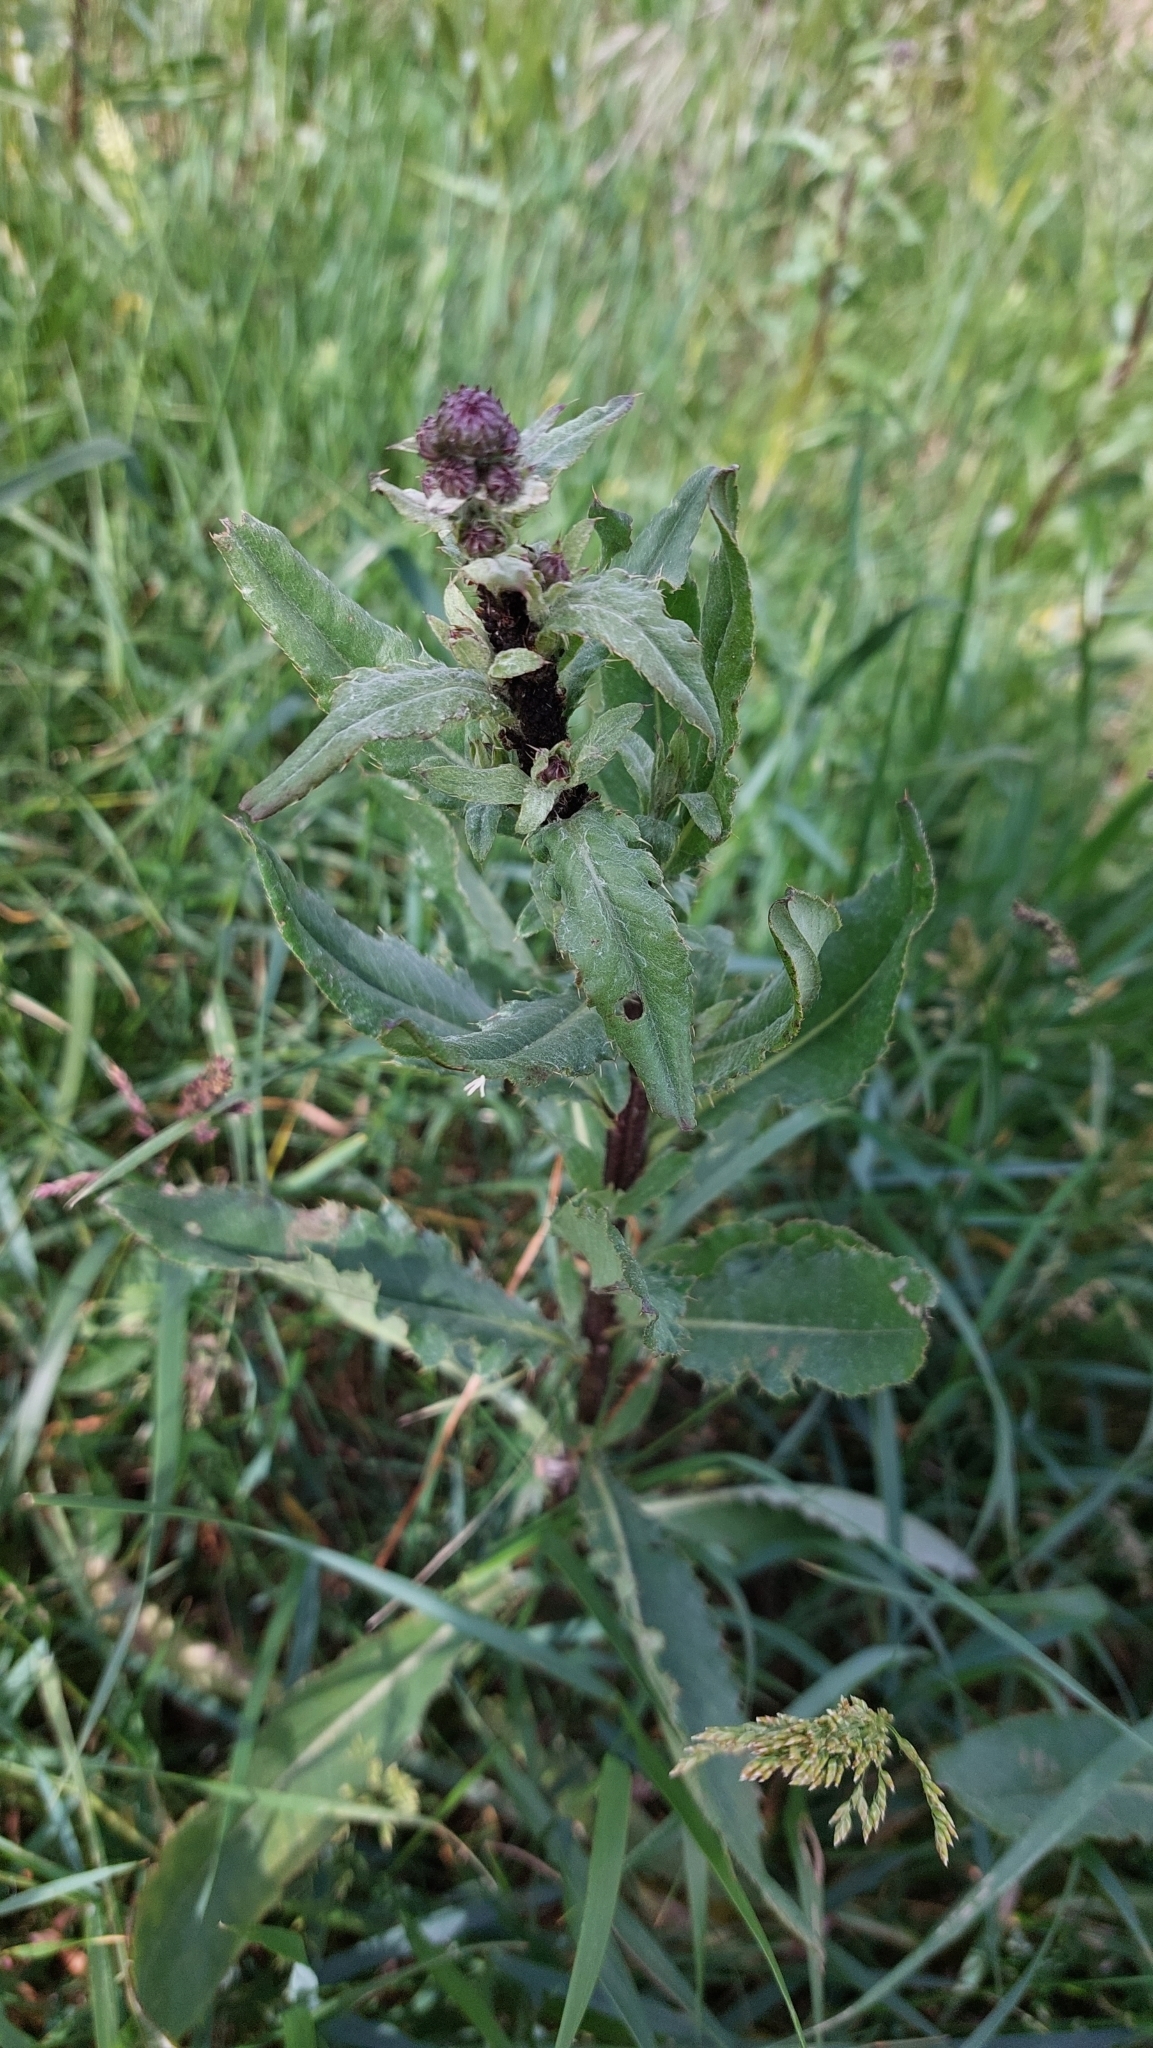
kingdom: Plantae
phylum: Tracheophyta
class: Magnoliopsida
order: Asterales
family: Asteraceae
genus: Cirsium
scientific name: Cirsium arvense
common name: Creeping thistle
